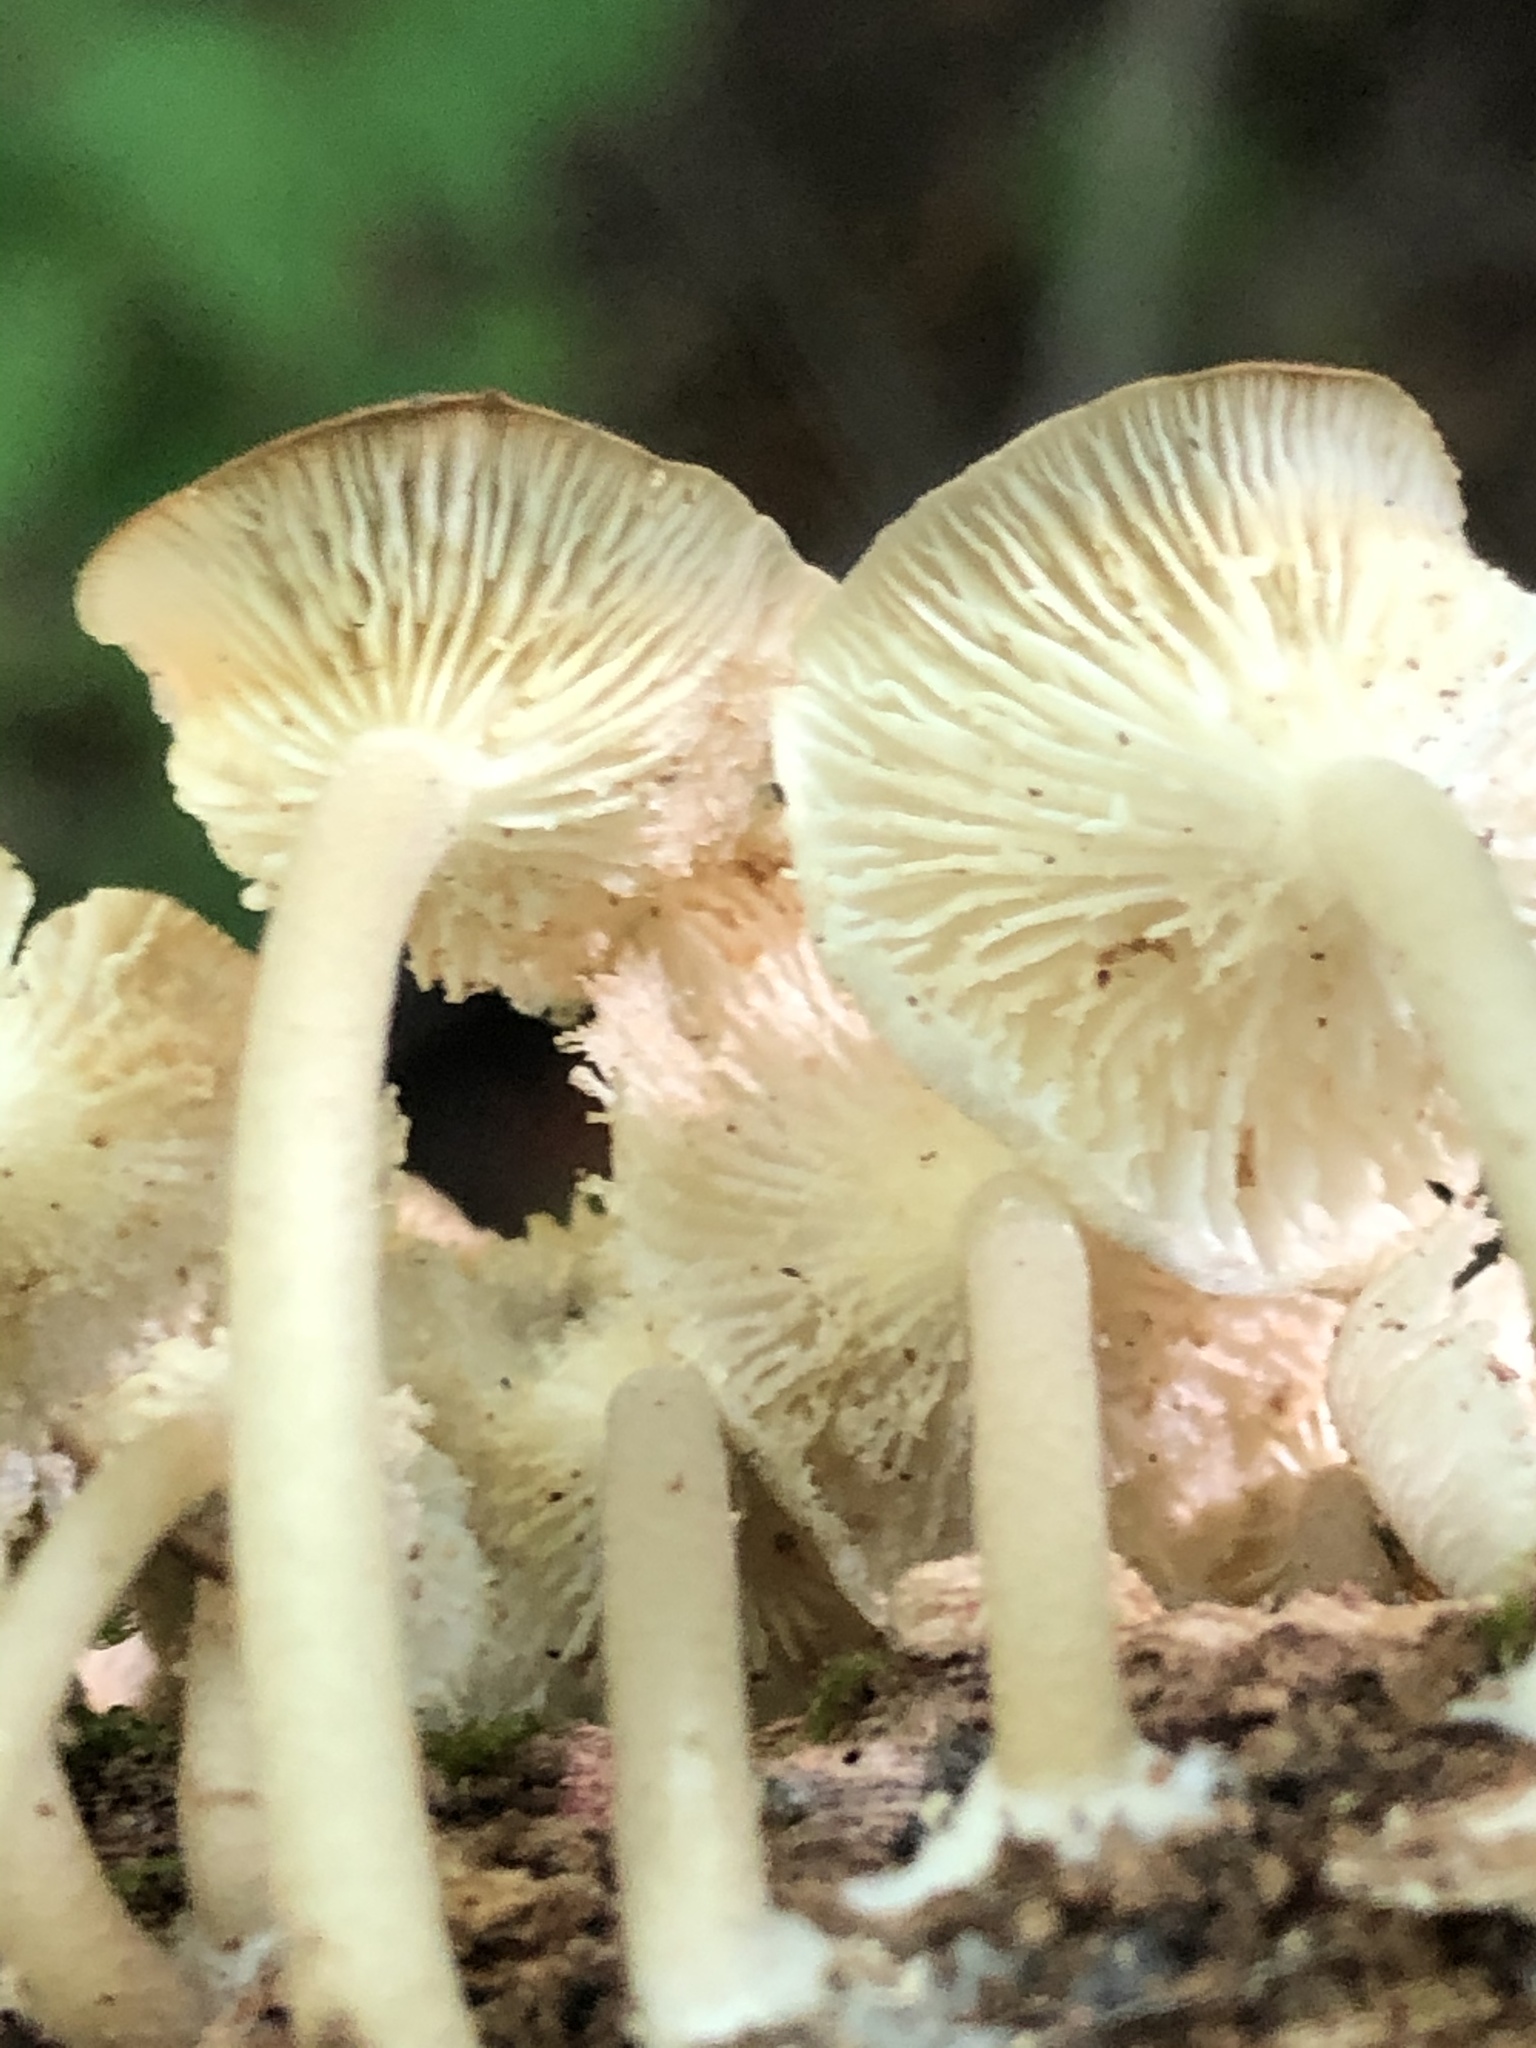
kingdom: Fungi
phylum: Basidiomycota
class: Agaricomycetes
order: Agaricales
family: Marasmiaceae
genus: Clitocybula
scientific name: Clitocybula oculus
